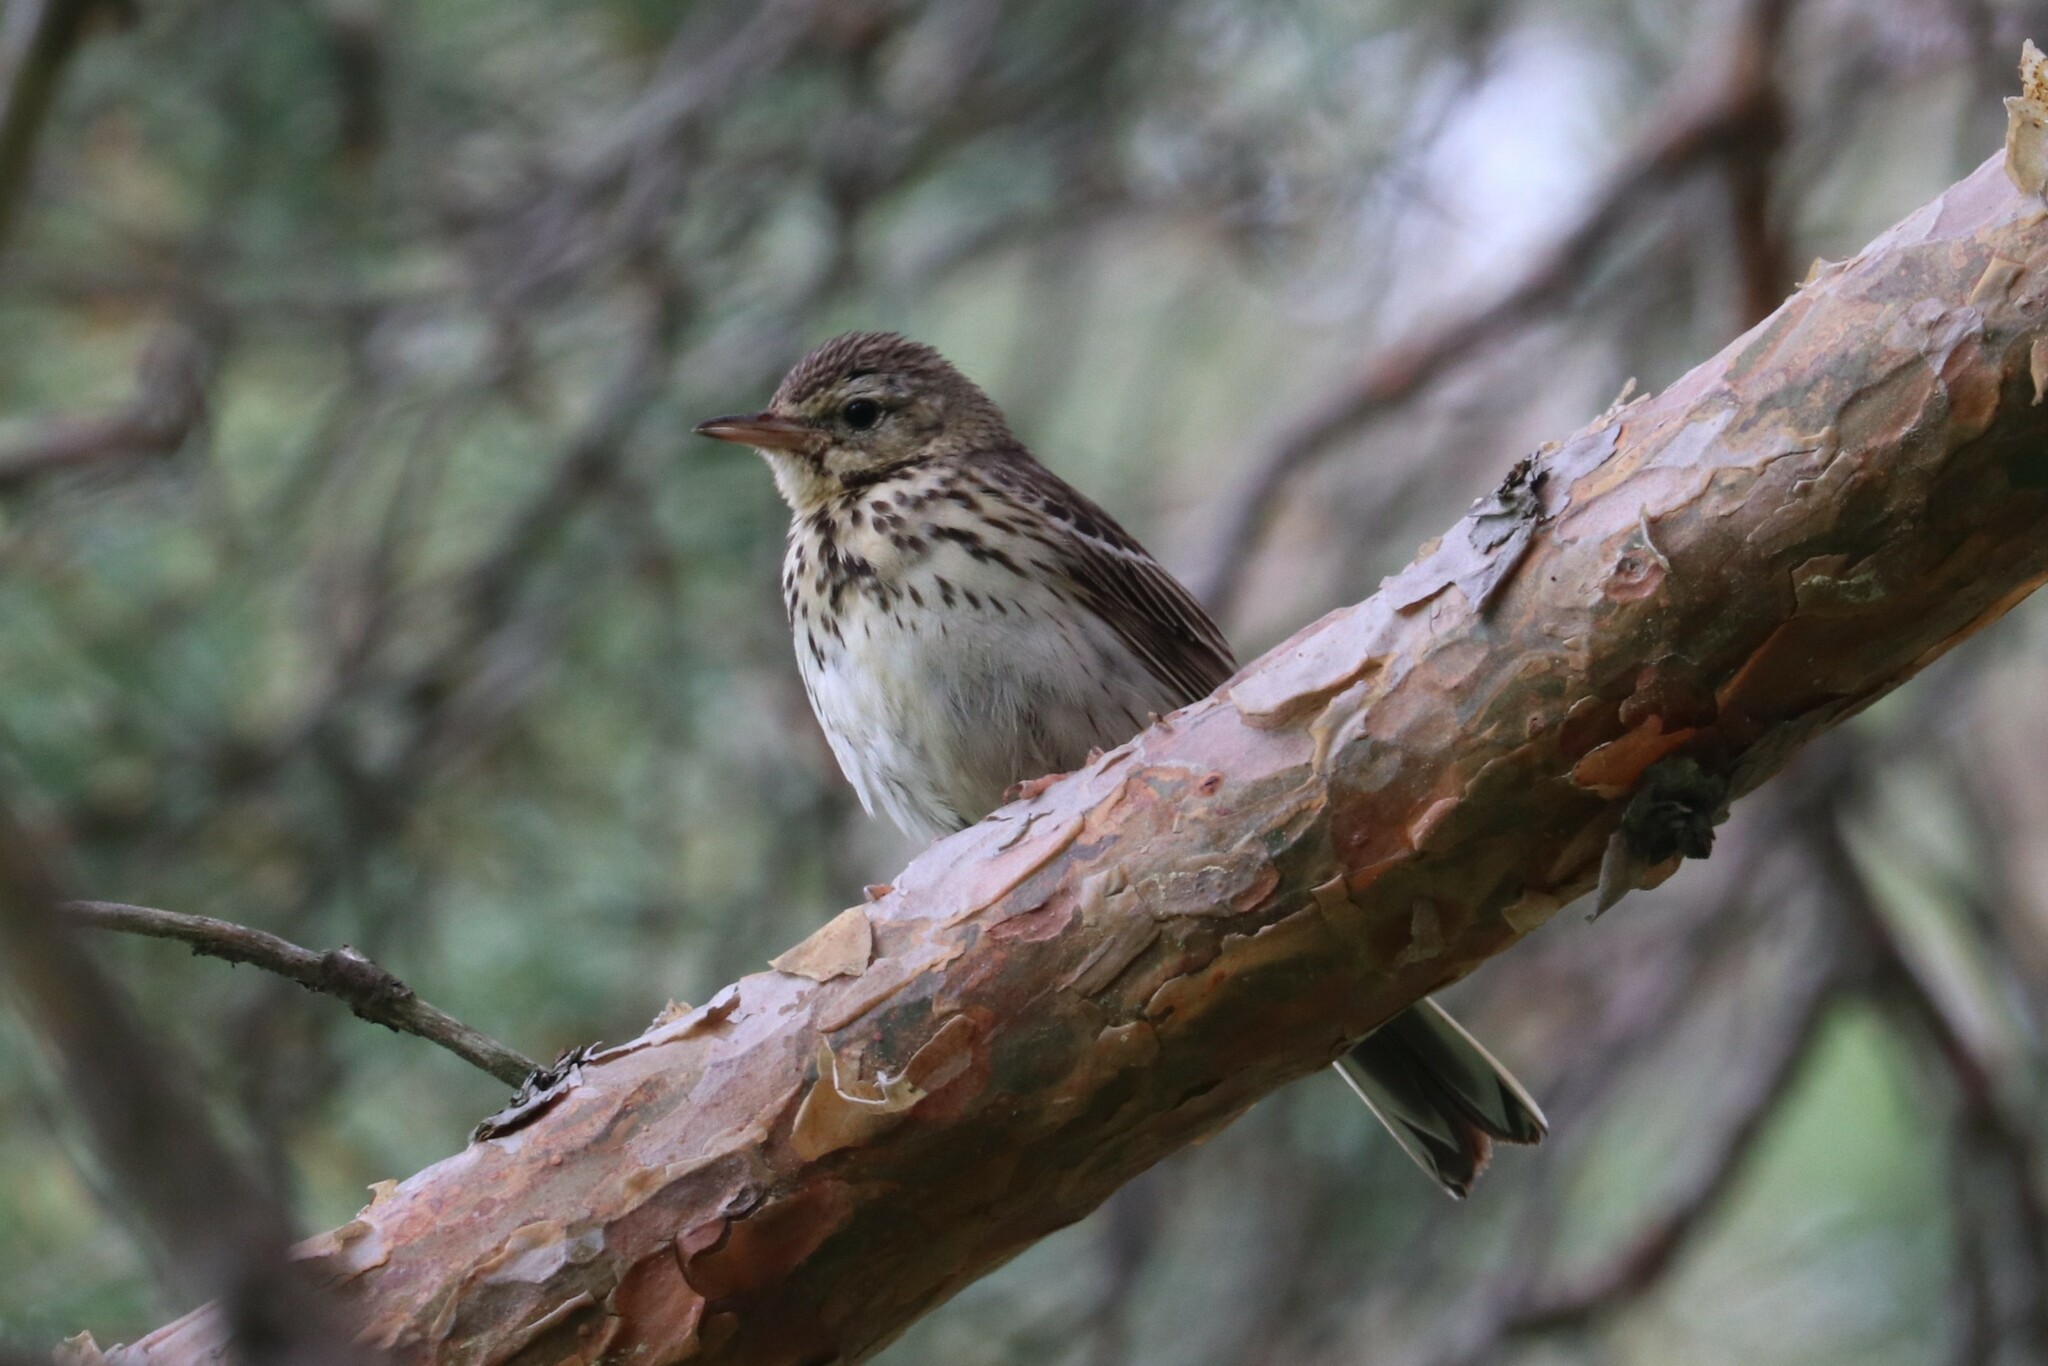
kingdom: Animalia
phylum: Chordata
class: Aves
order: Passeriformes
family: Motacillidae
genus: Anthus
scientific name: Anthus trivialis
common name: Tree pipit
